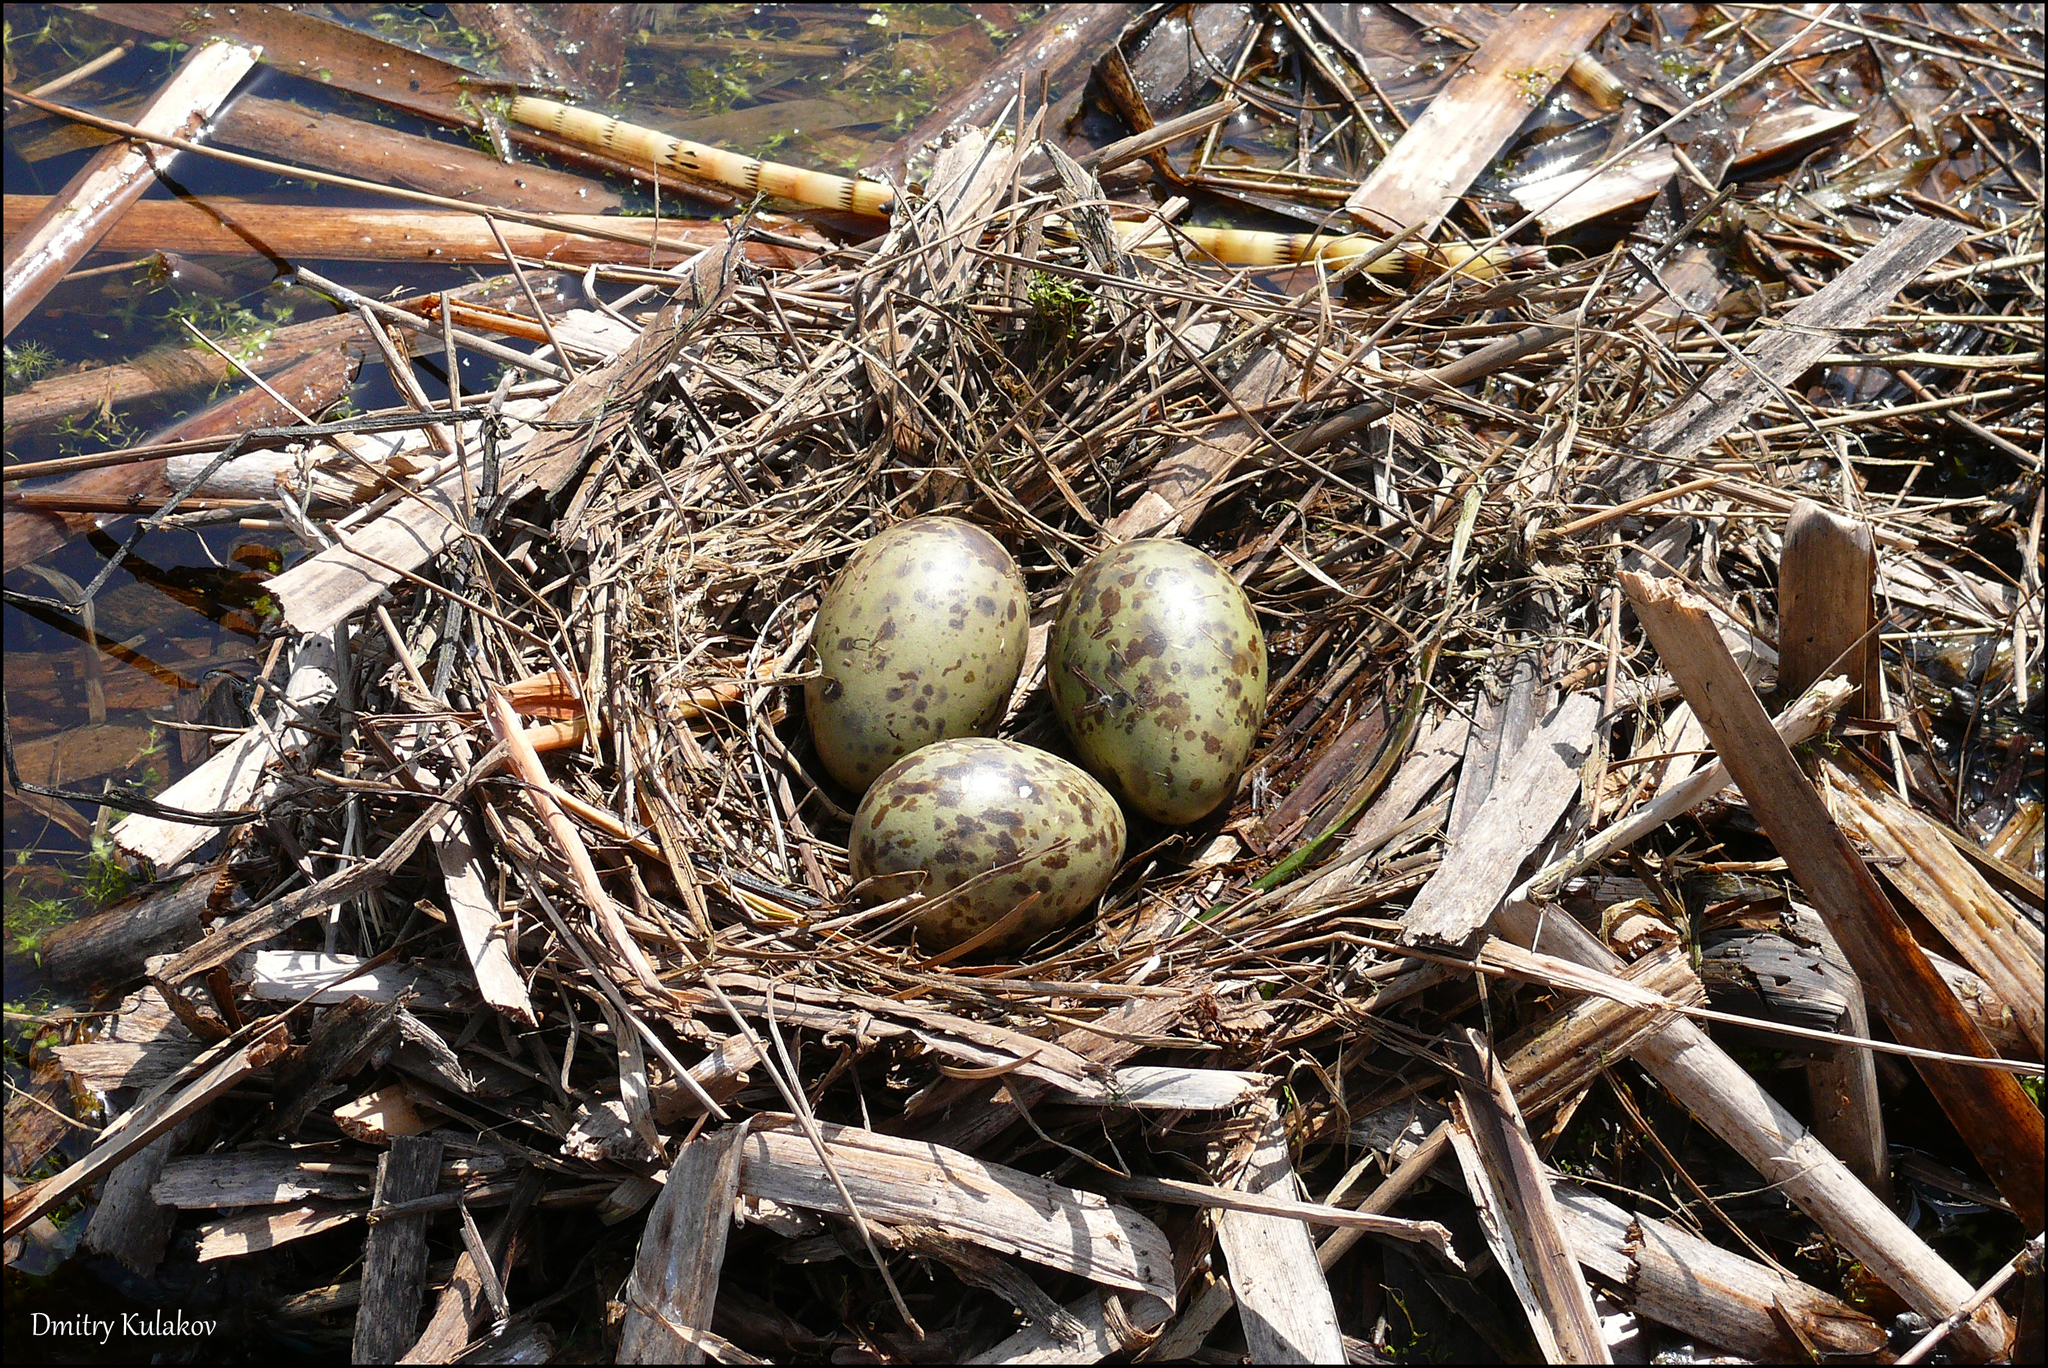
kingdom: Animalia
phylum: Chordata
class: Aves
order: Charadriiformes
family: Laridae
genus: Chroicocephalus
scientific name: Chroicocephalus ridibundus
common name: Black-headed gull
